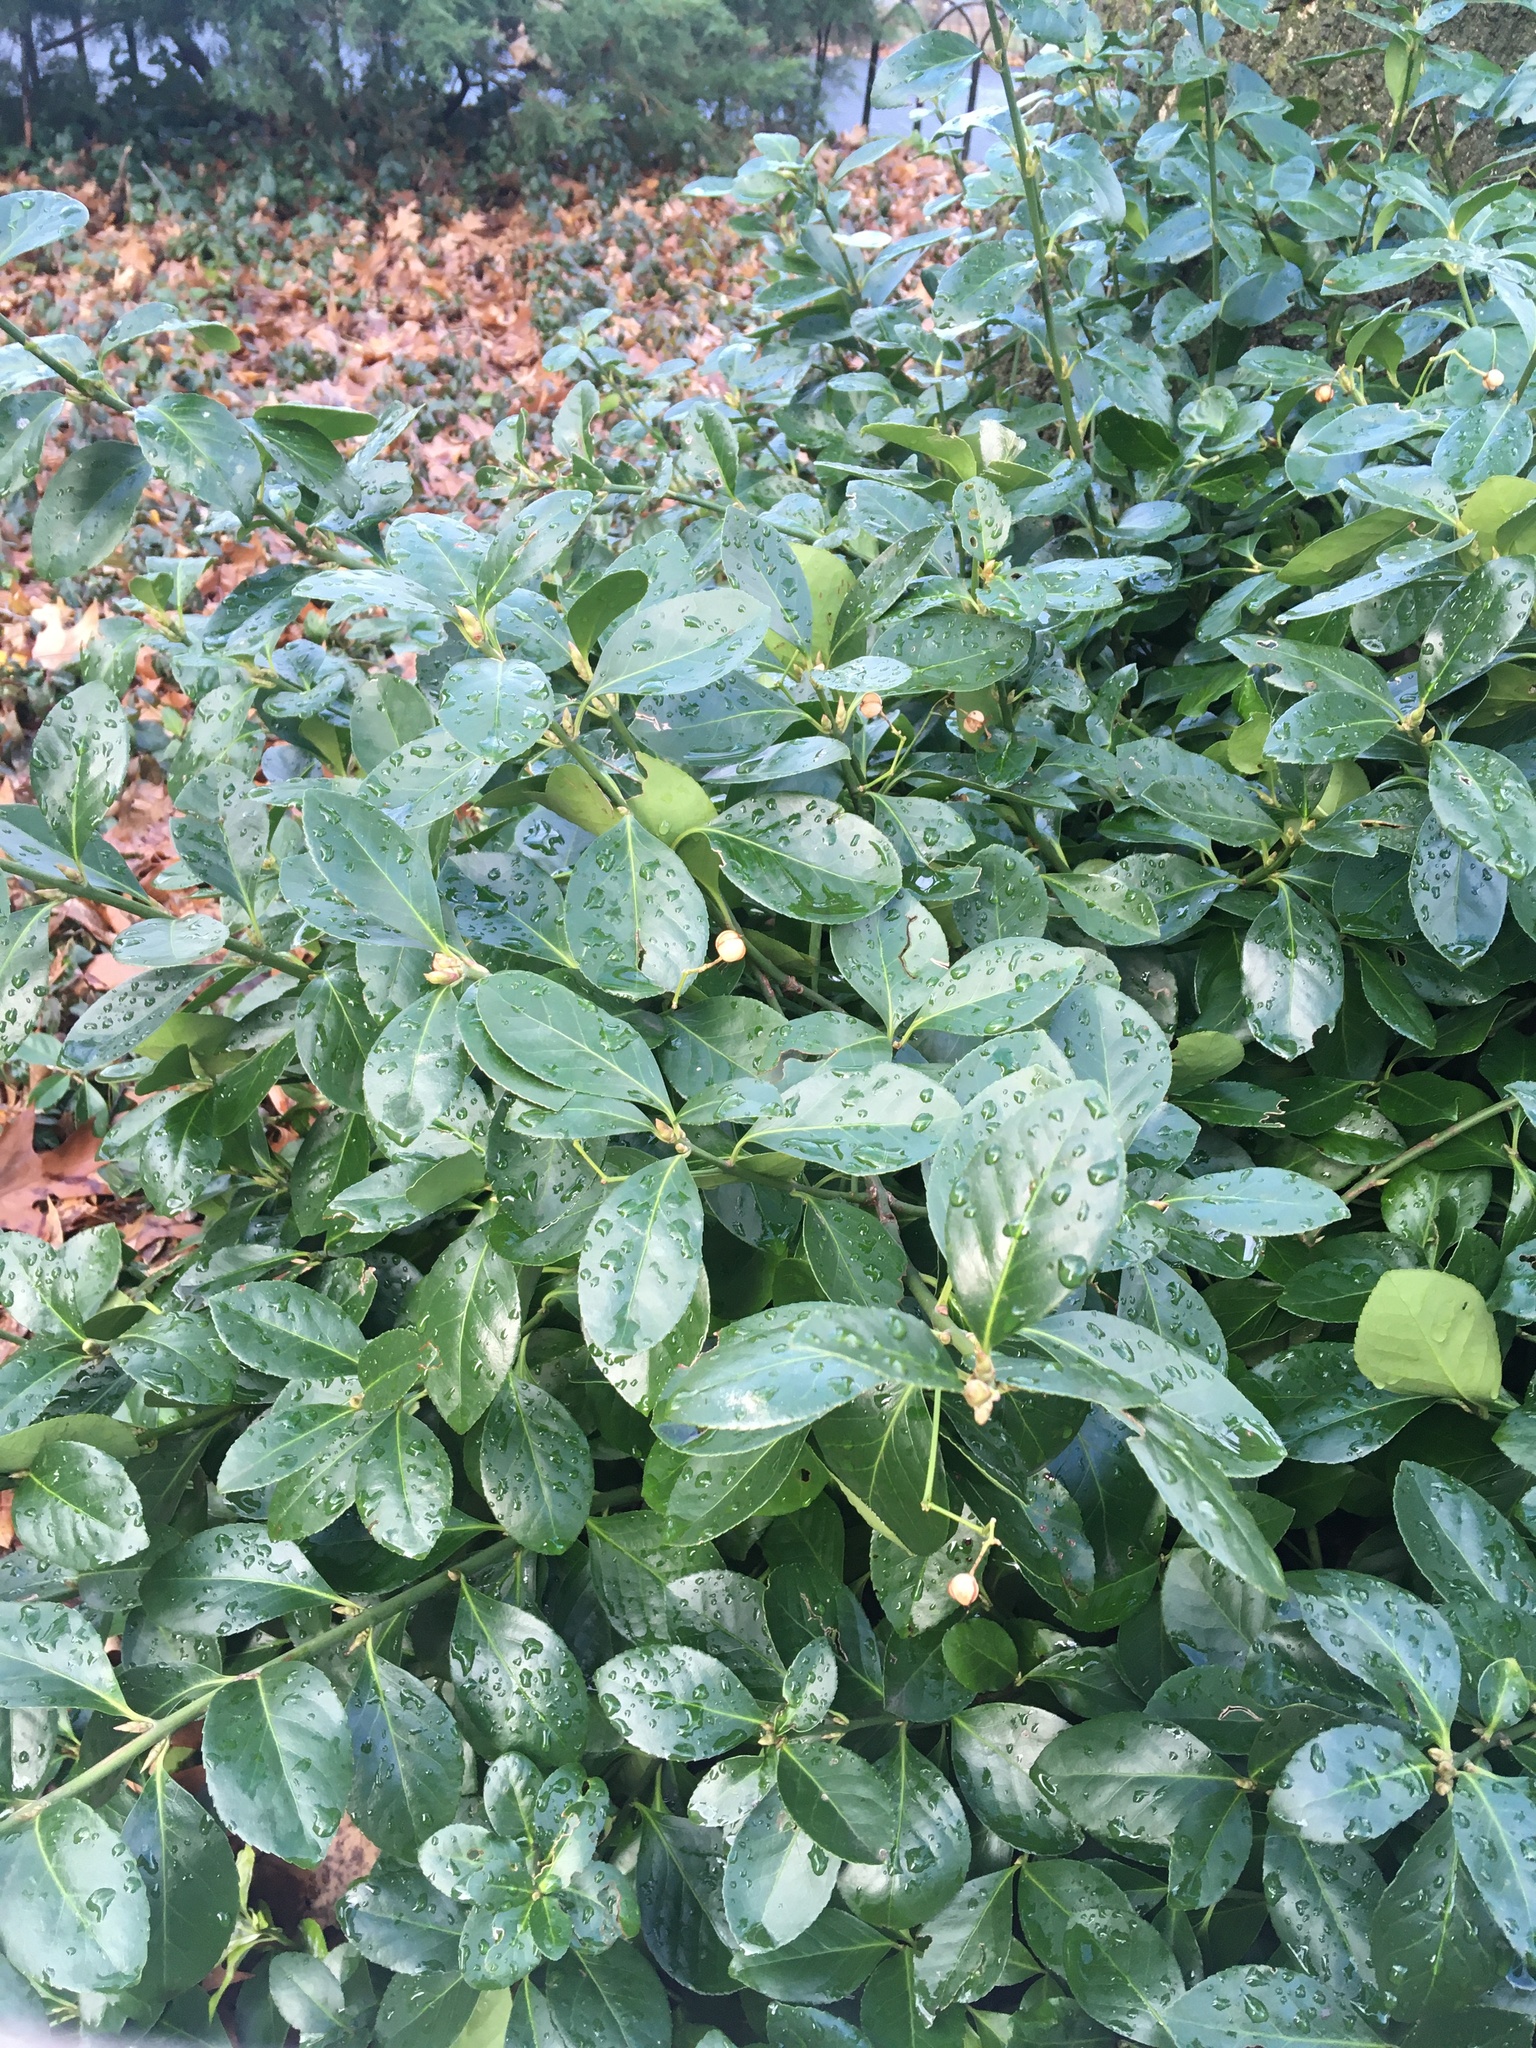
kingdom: Plantae
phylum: Tracheophyta
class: Magnoliopsida
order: Celastrales
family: Celastraceae
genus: Euonymus
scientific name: Euonymus fortunei
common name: Climbing euonymus
